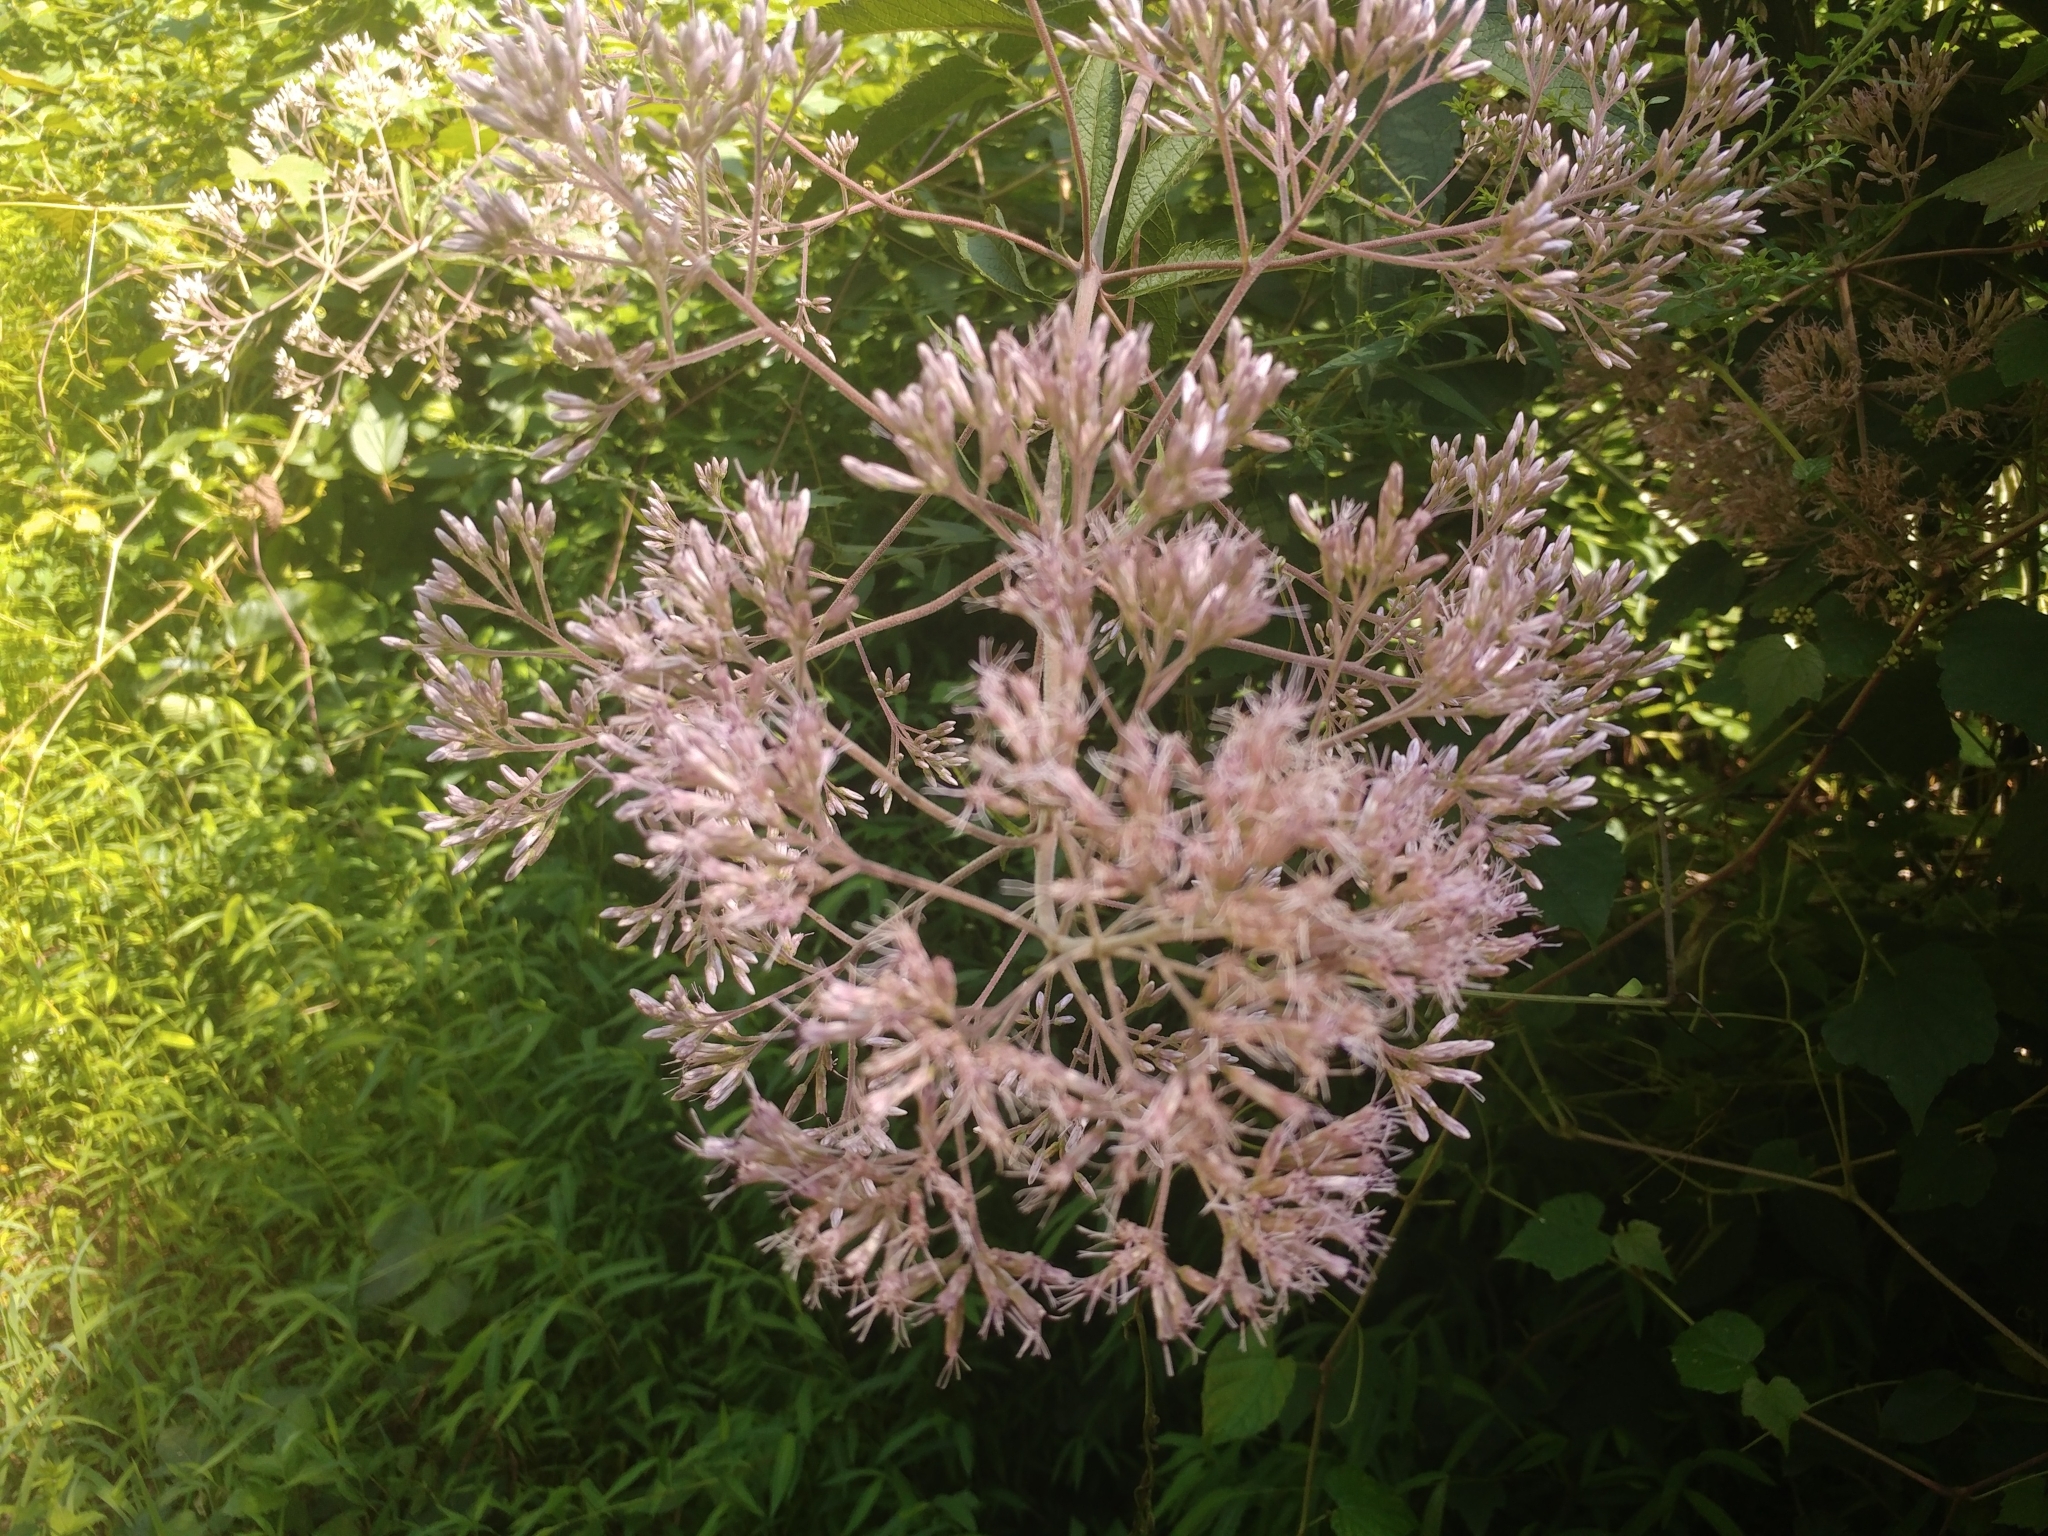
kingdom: Plantae
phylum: Tracheophyta
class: Magnoliopsida
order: Asterales
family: Asteraceae
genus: Eutrochium
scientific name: Eutrochium fistulosum
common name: Trumpetweed
